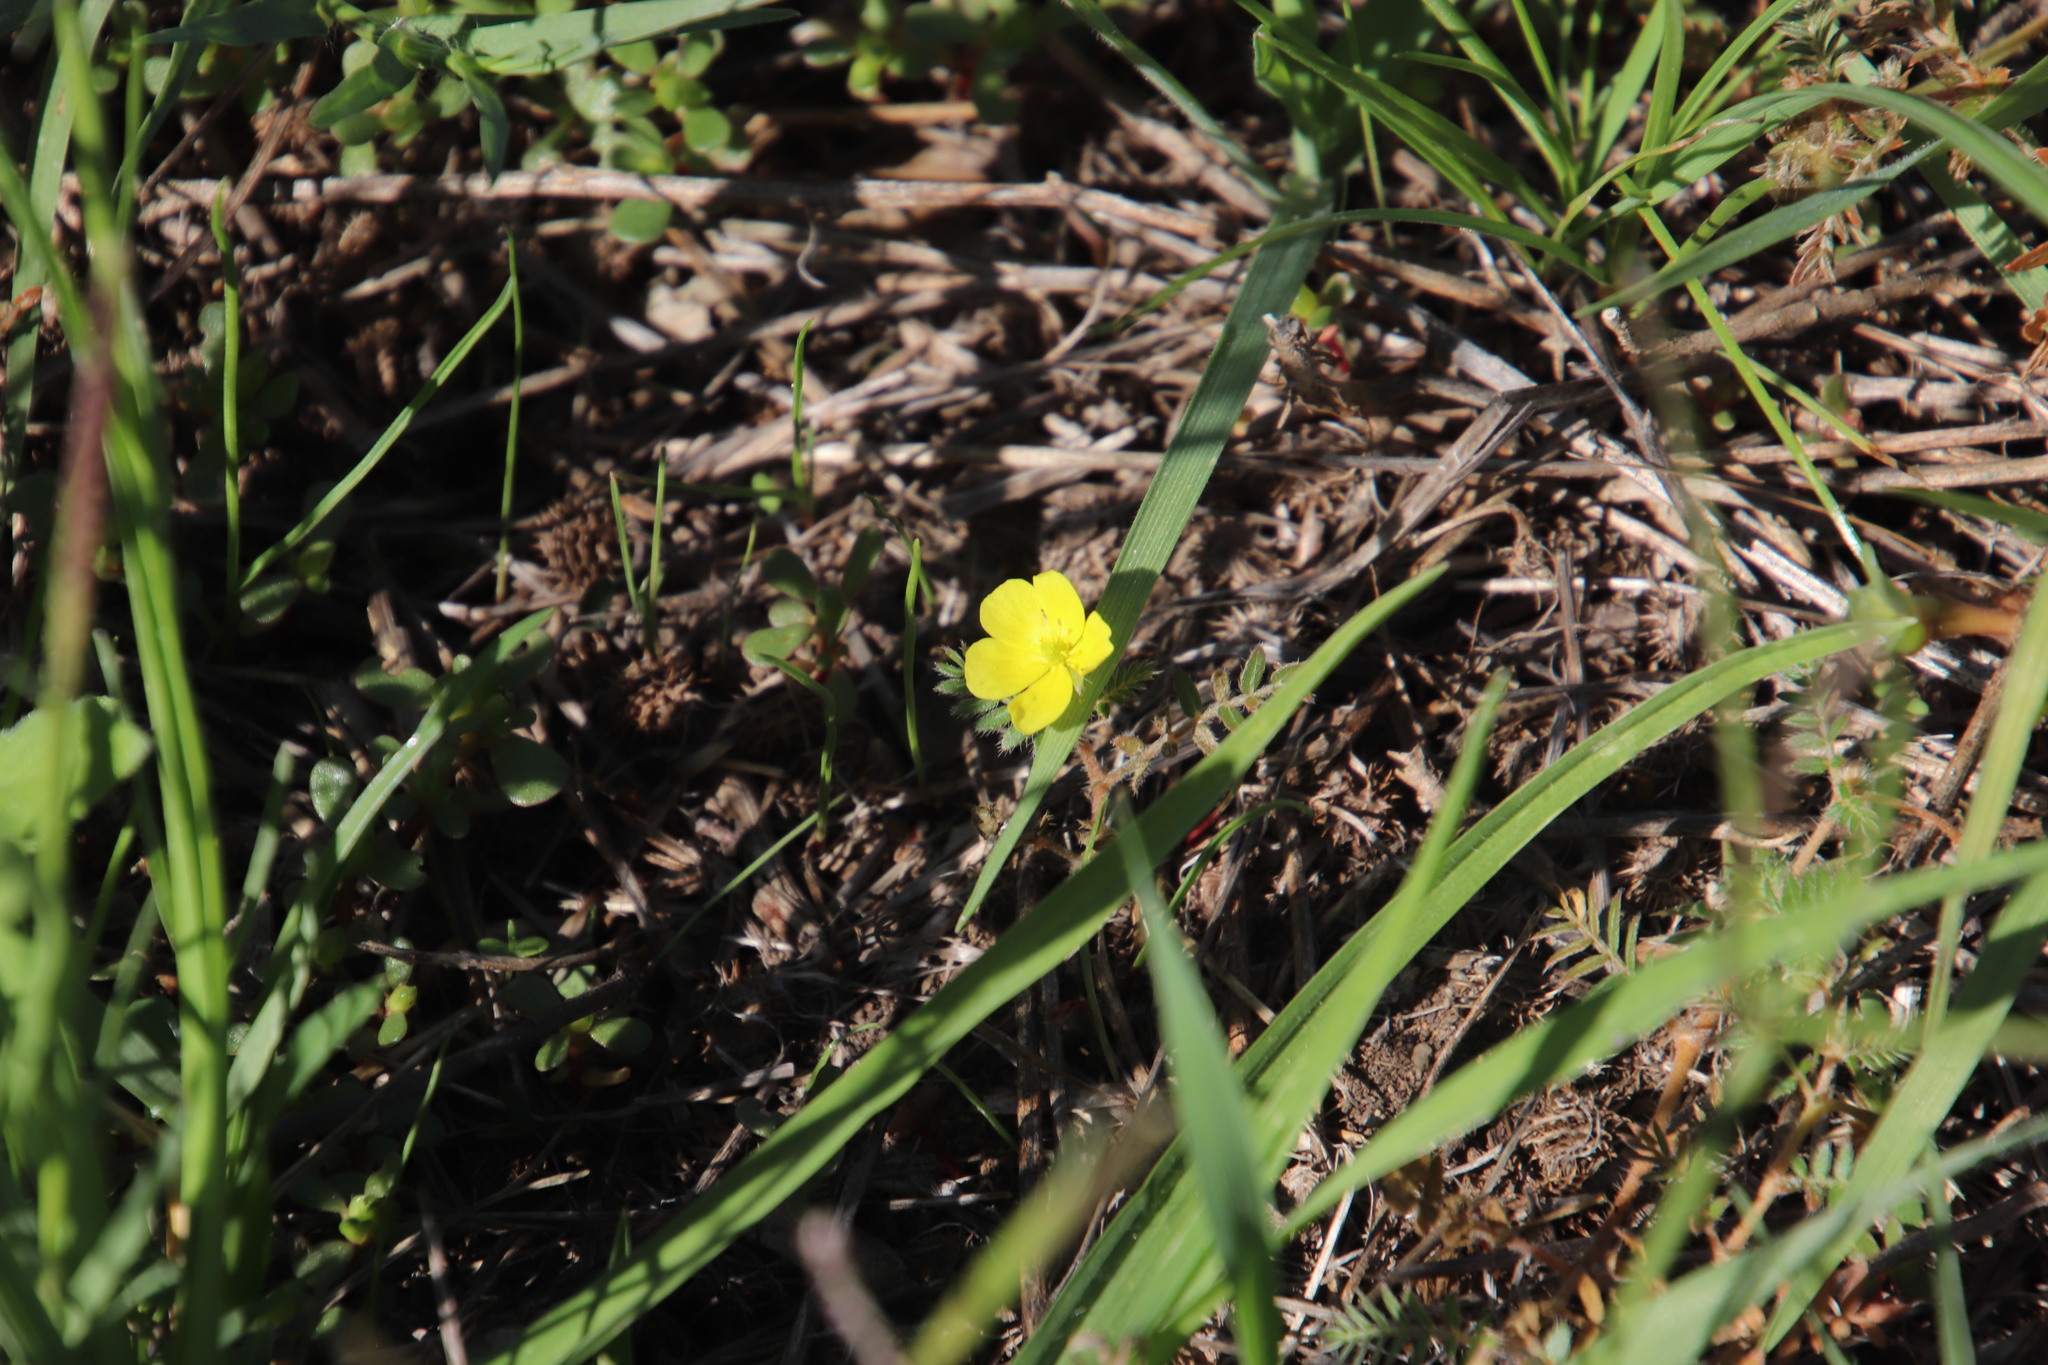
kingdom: Plantae
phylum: Tracheophyta
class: Magnoliopsida
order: Zygophyllales
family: Zygophyllaceae
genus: Tribulus
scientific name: Tribulus terrestris
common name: Puncturevine
